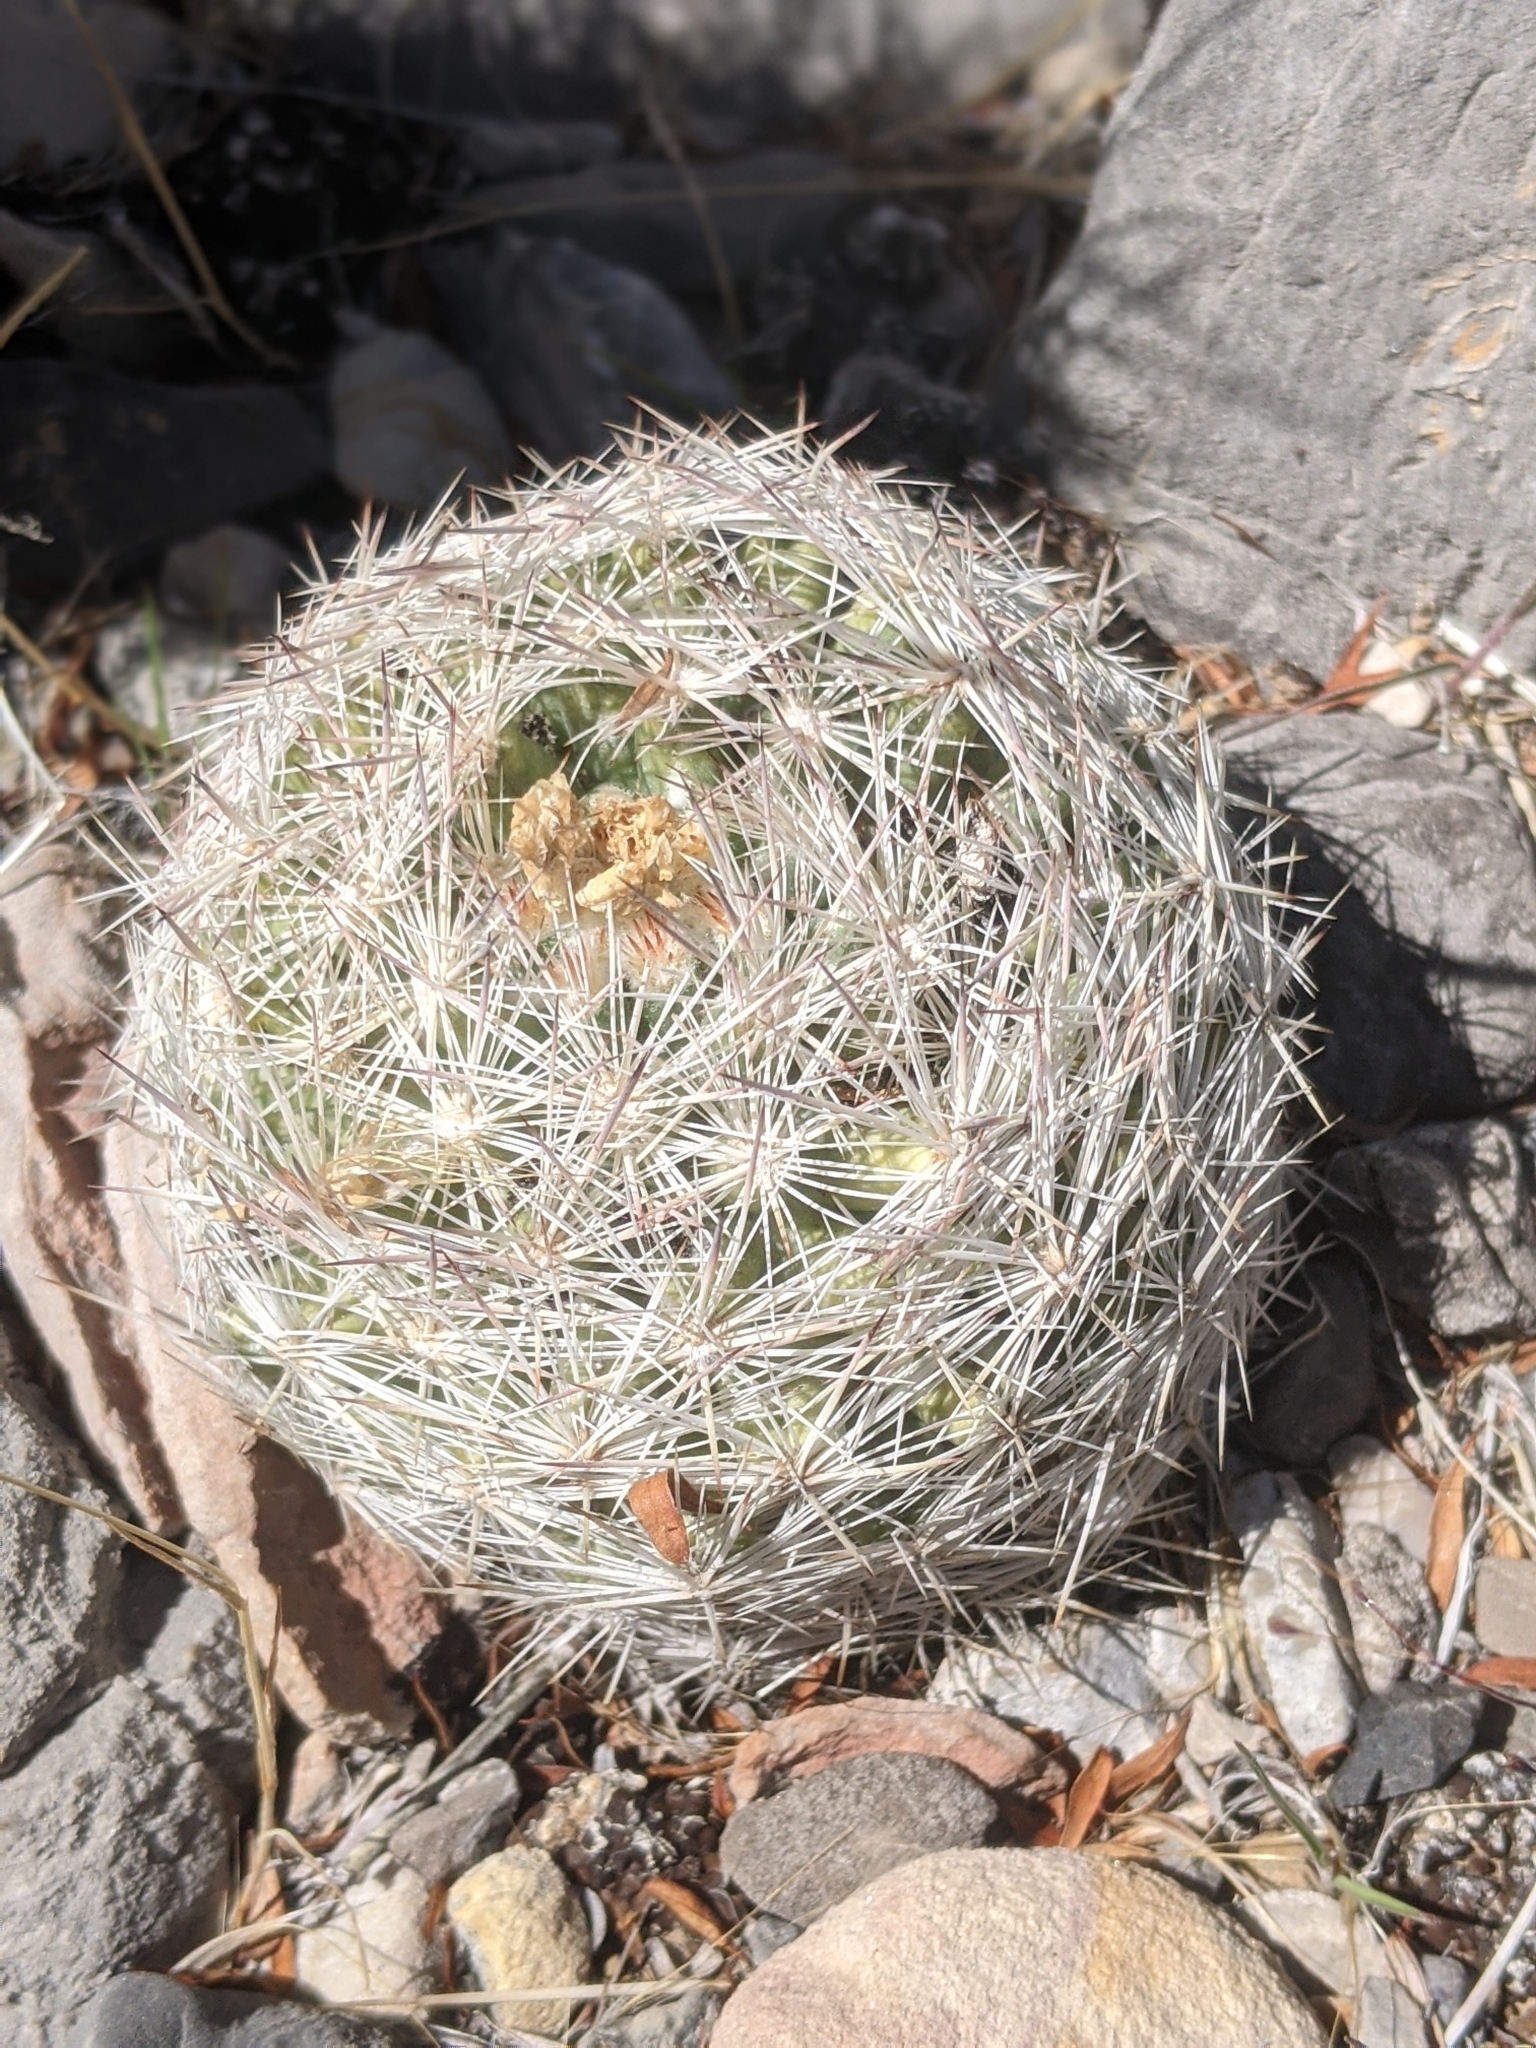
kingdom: Plantae
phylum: Tracheophyta
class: Magnoliopsida
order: Caryophyllales
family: Cactaceae
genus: Pelecyphora
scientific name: Pelecyphora dasyacantha
